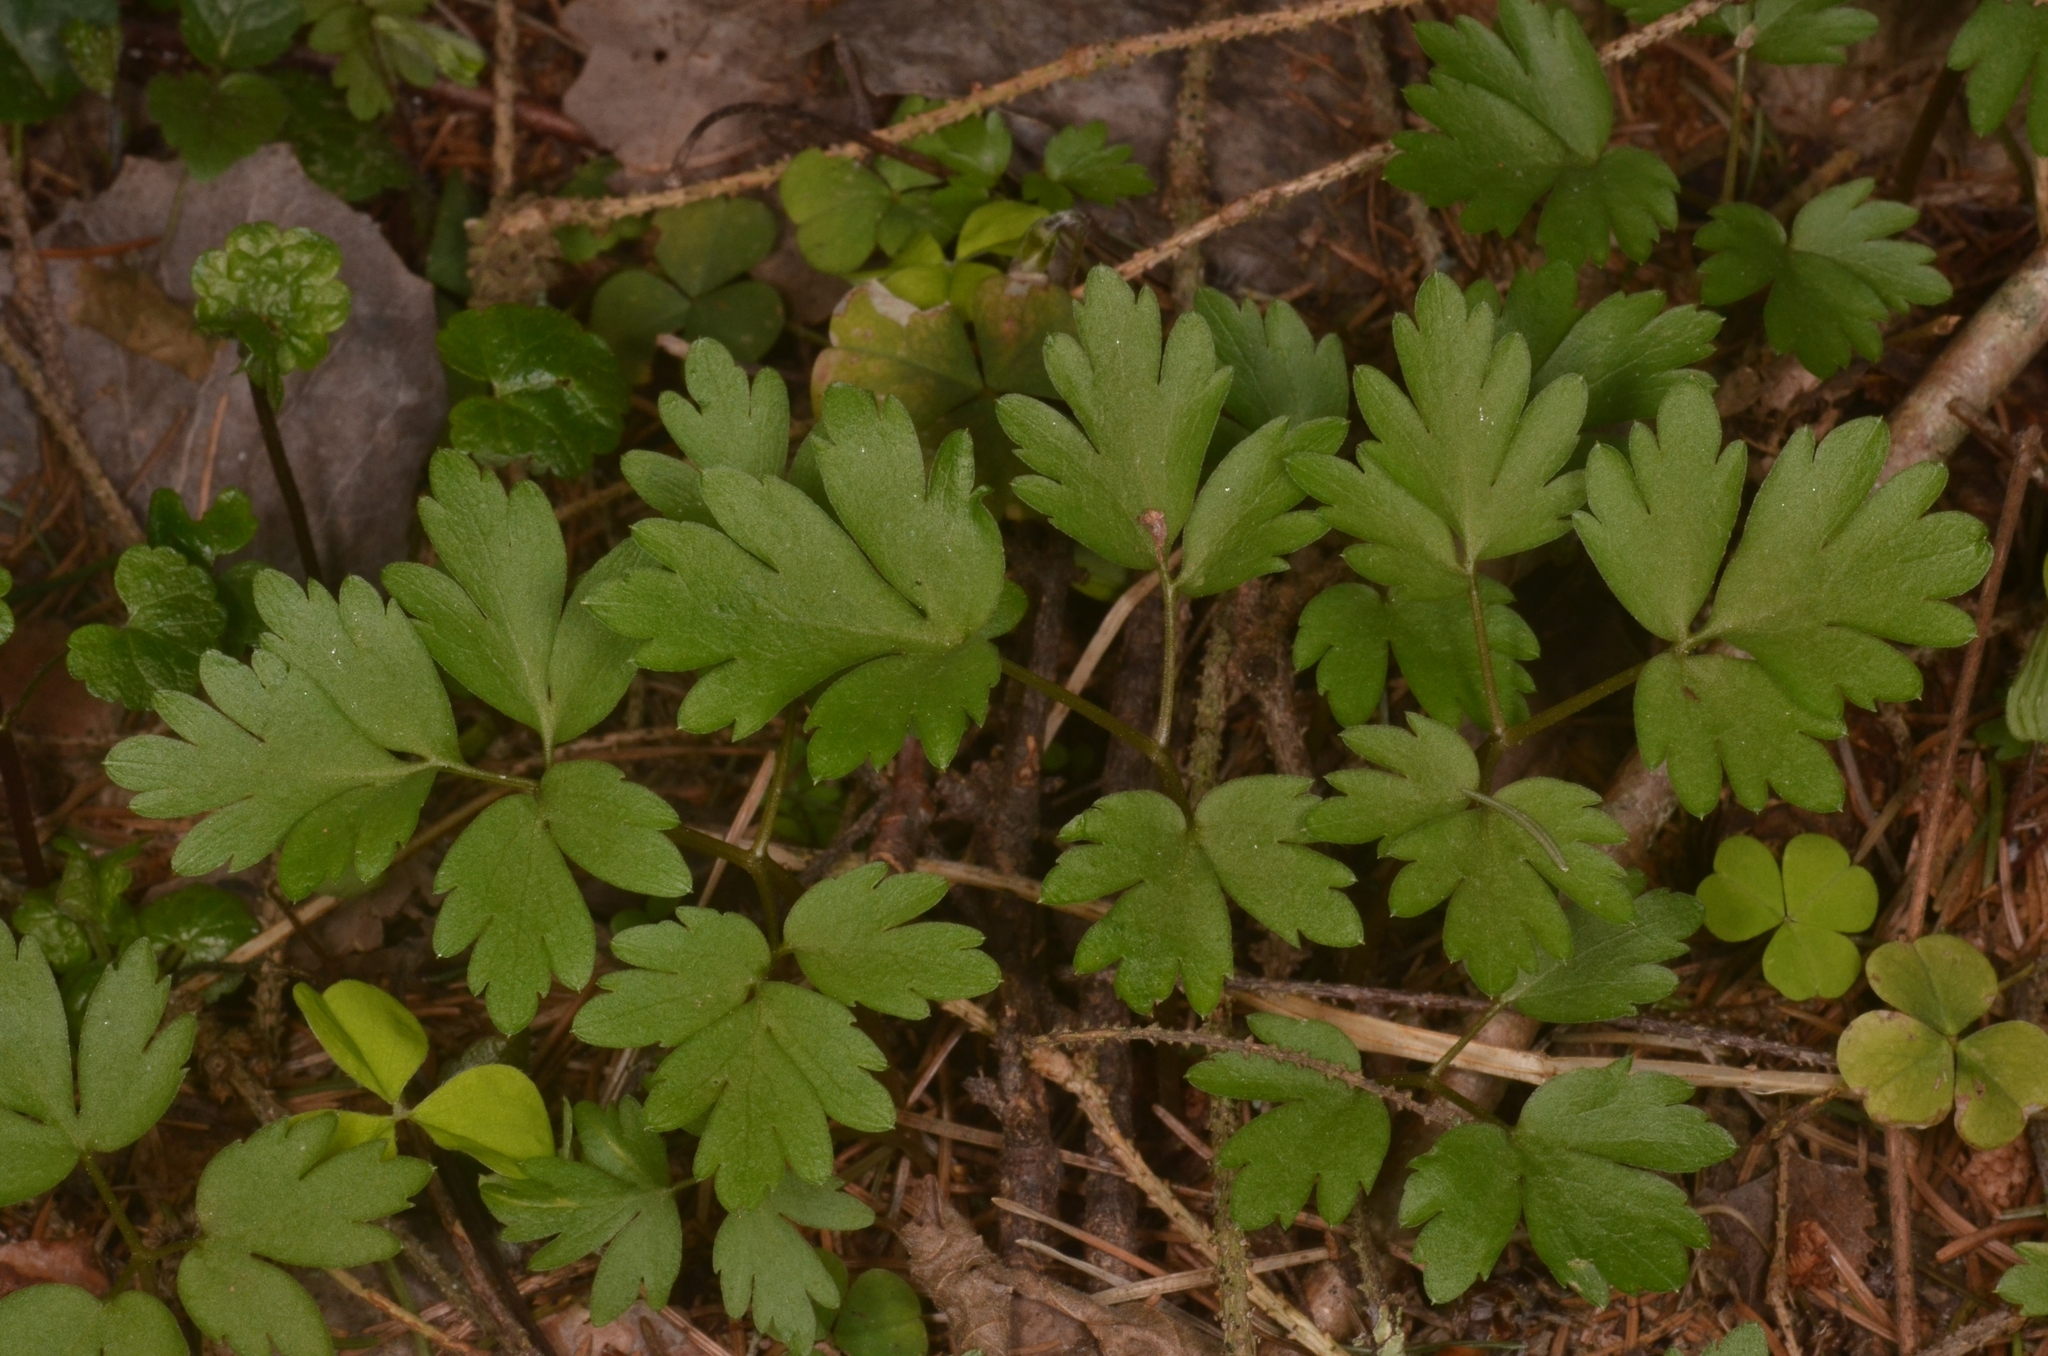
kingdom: Plantae
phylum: Tracheophyta
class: Magnoliopsida
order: Dipsacales
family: Viburnaceae
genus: Adoxa
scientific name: Adoxa moschatellina
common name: Moschatel
